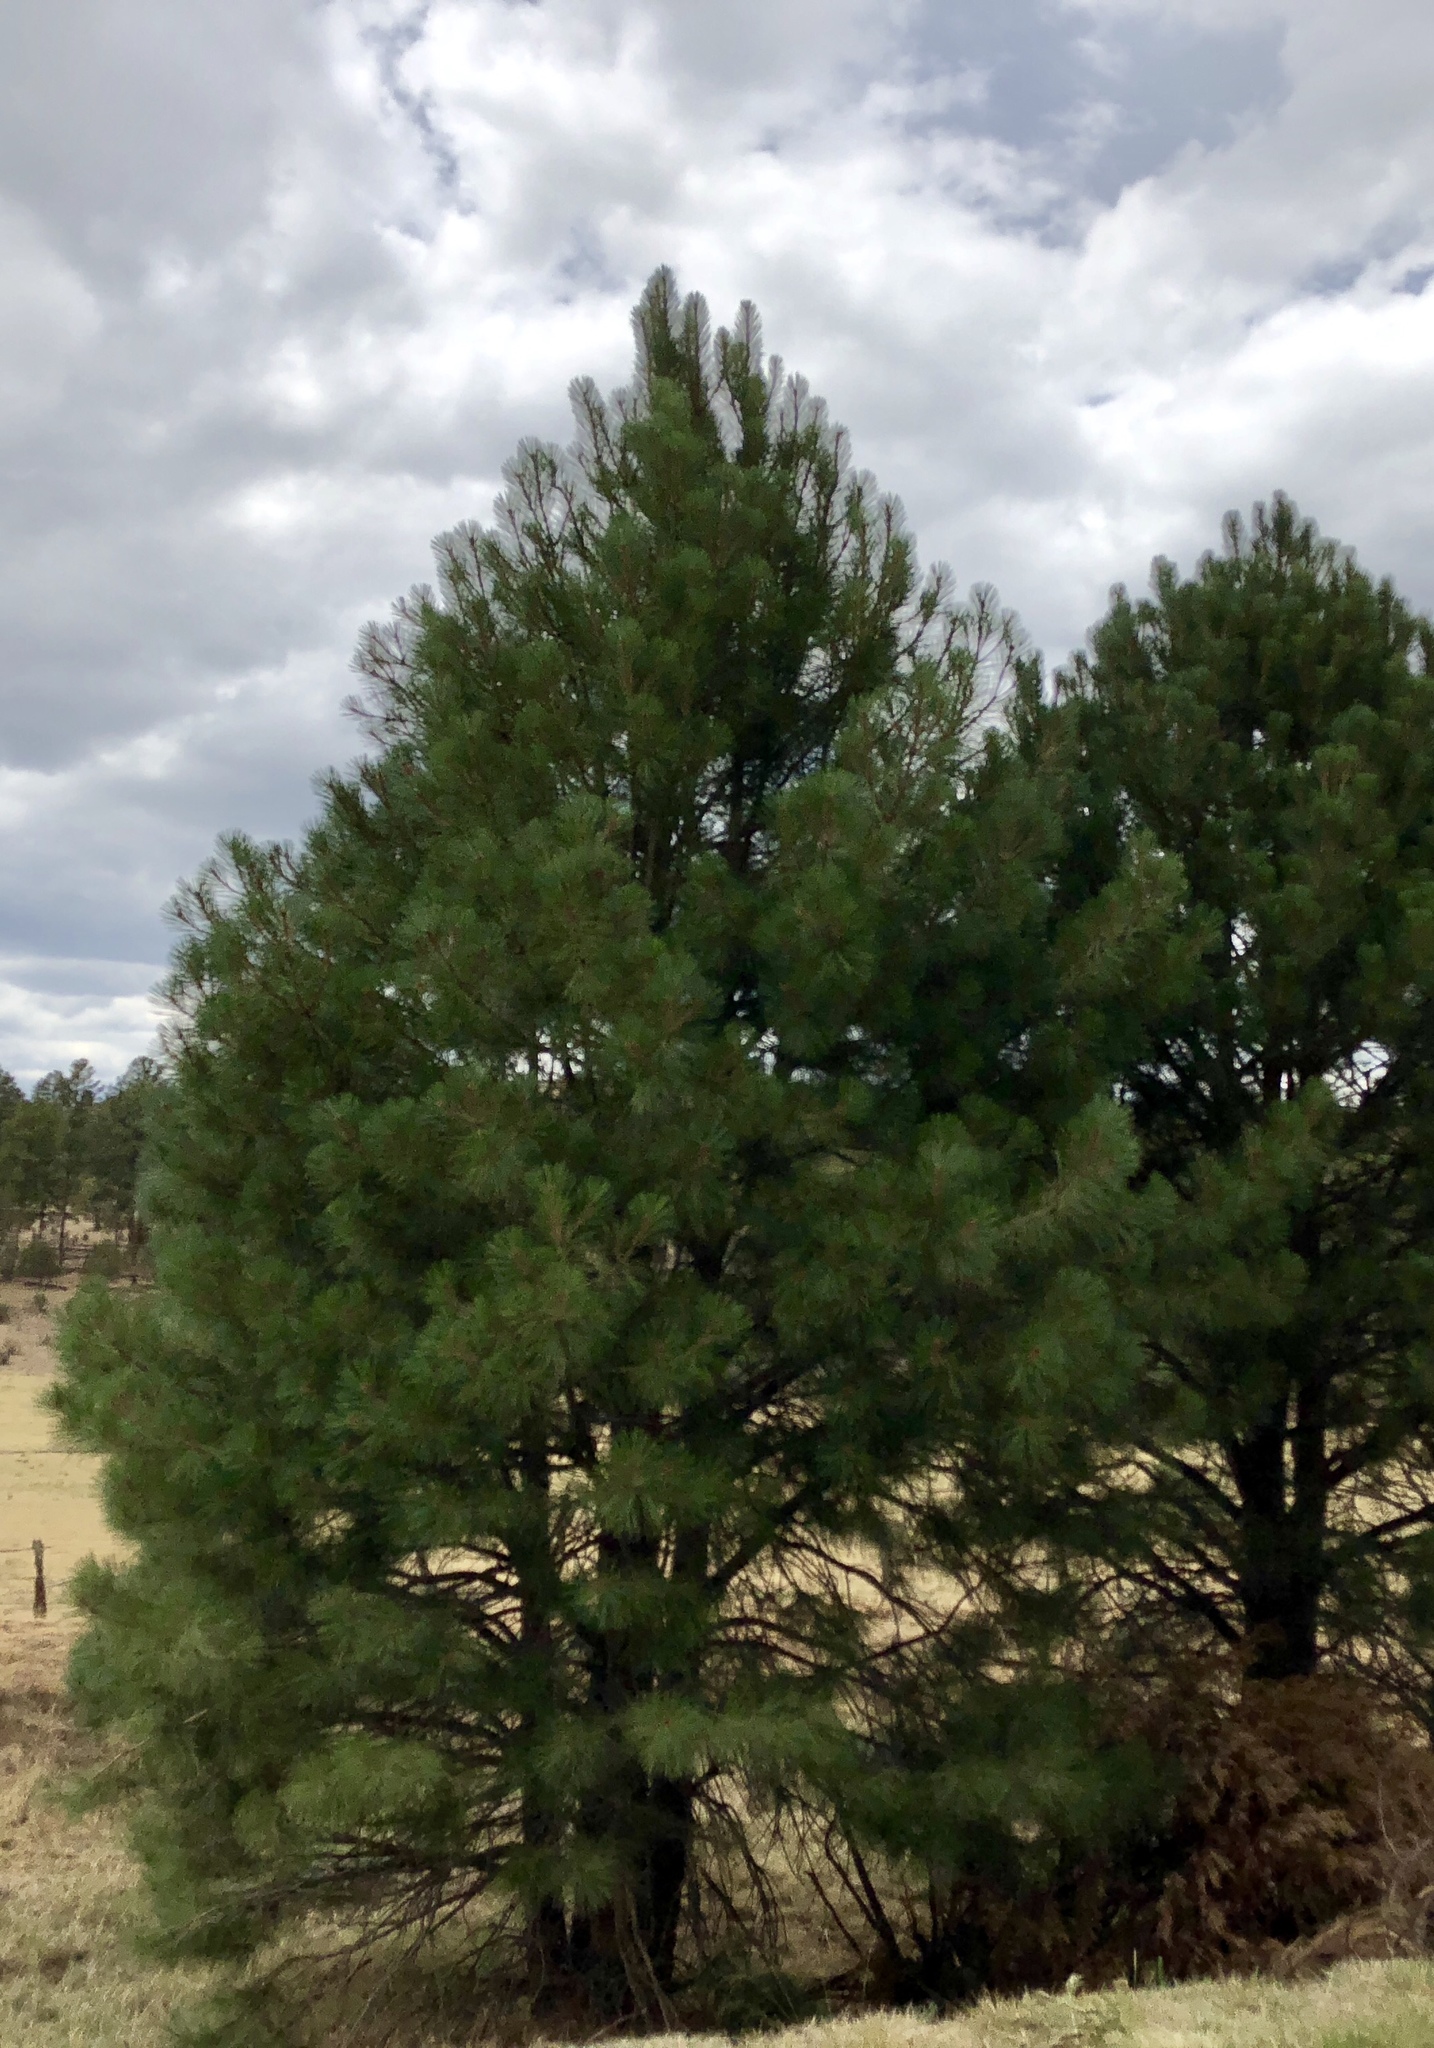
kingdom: Plantae
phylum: Tracheophyta
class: Pinopsida
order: Pinales
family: Pinaceae
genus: Pinus
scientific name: Pinus ponderosa
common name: Western yellow-pine
